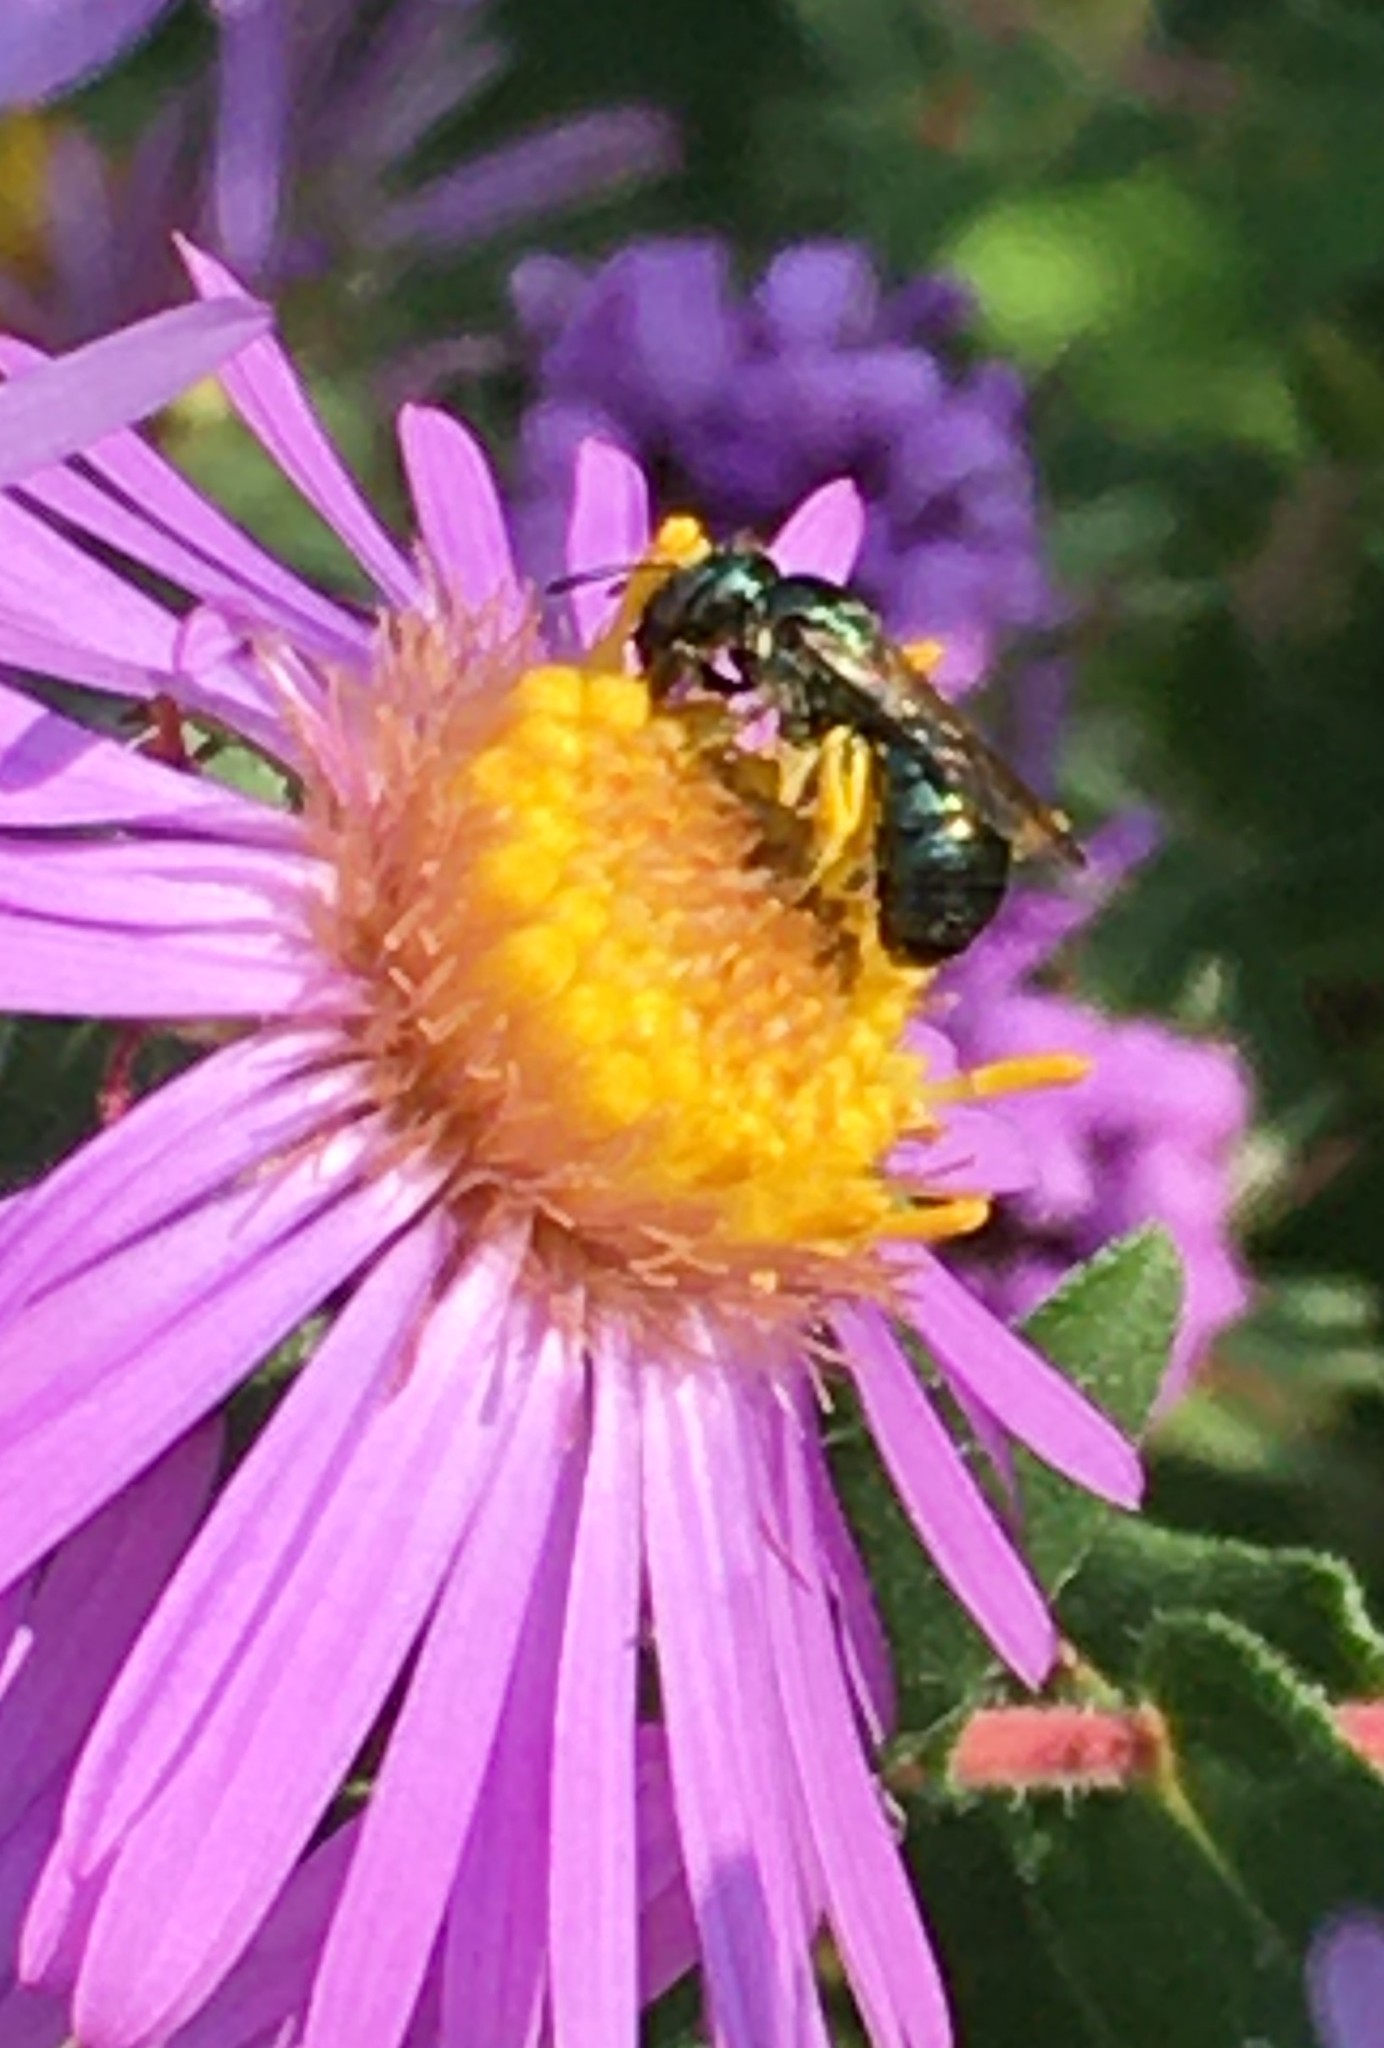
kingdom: Animalia
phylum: Arthropoda
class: Insecta
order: Hymenoptera
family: Apidae
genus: Zadontomerus
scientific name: Zadontomerus
